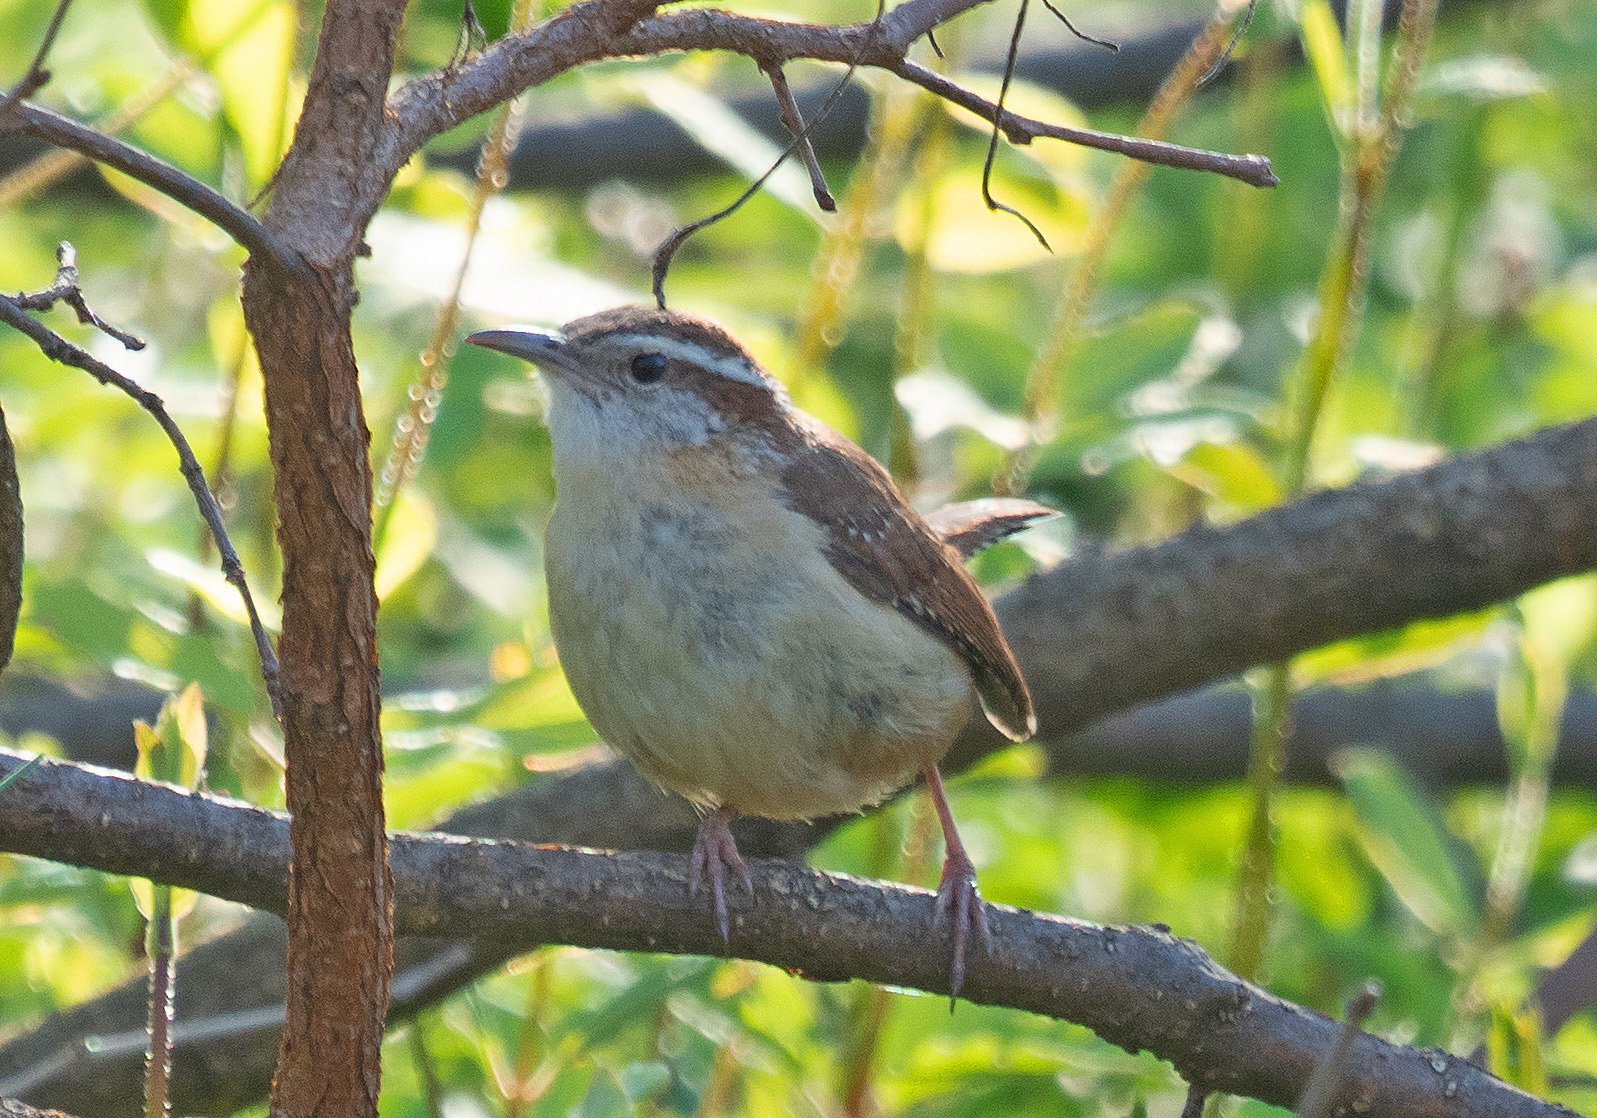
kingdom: Animalia
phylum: Chordata
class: Aves
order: Passeriformes
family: Troglodytidae
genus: Thryothorus
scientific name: Thryothorus ludovicianus
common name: Carolina wren
